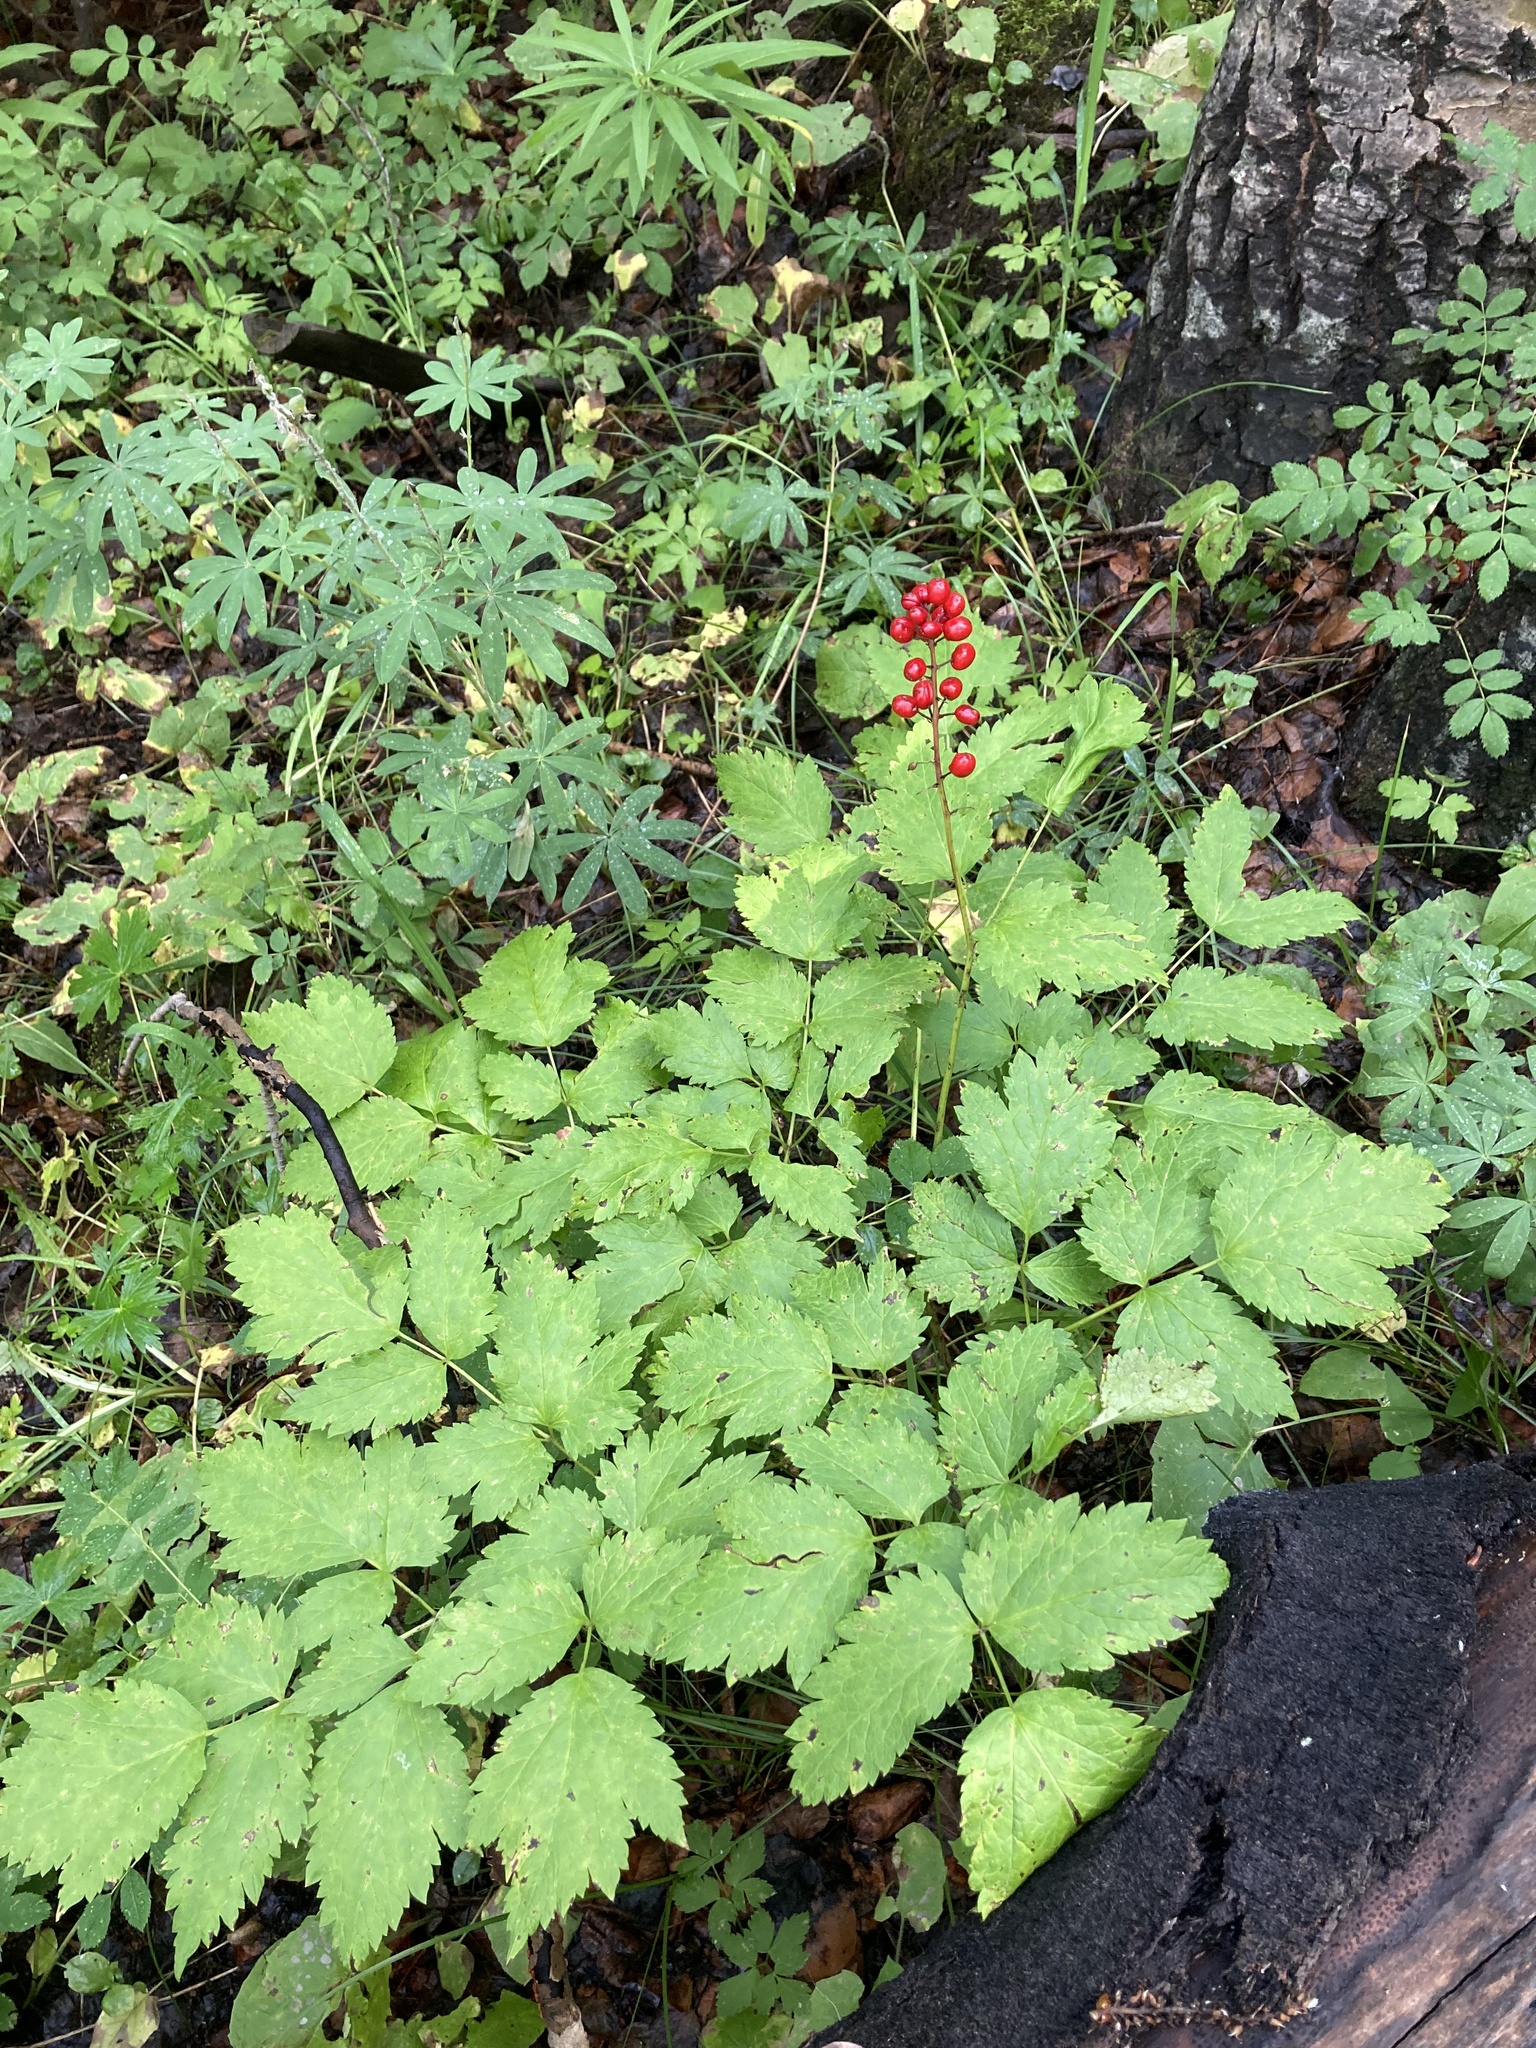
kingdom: Plantae
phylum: Tracheophyta
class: Magnoliopsida
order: Ranunculales
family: Ranunculaceae
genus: Actaea
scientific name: Actaea rubra
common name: Red baneberry
